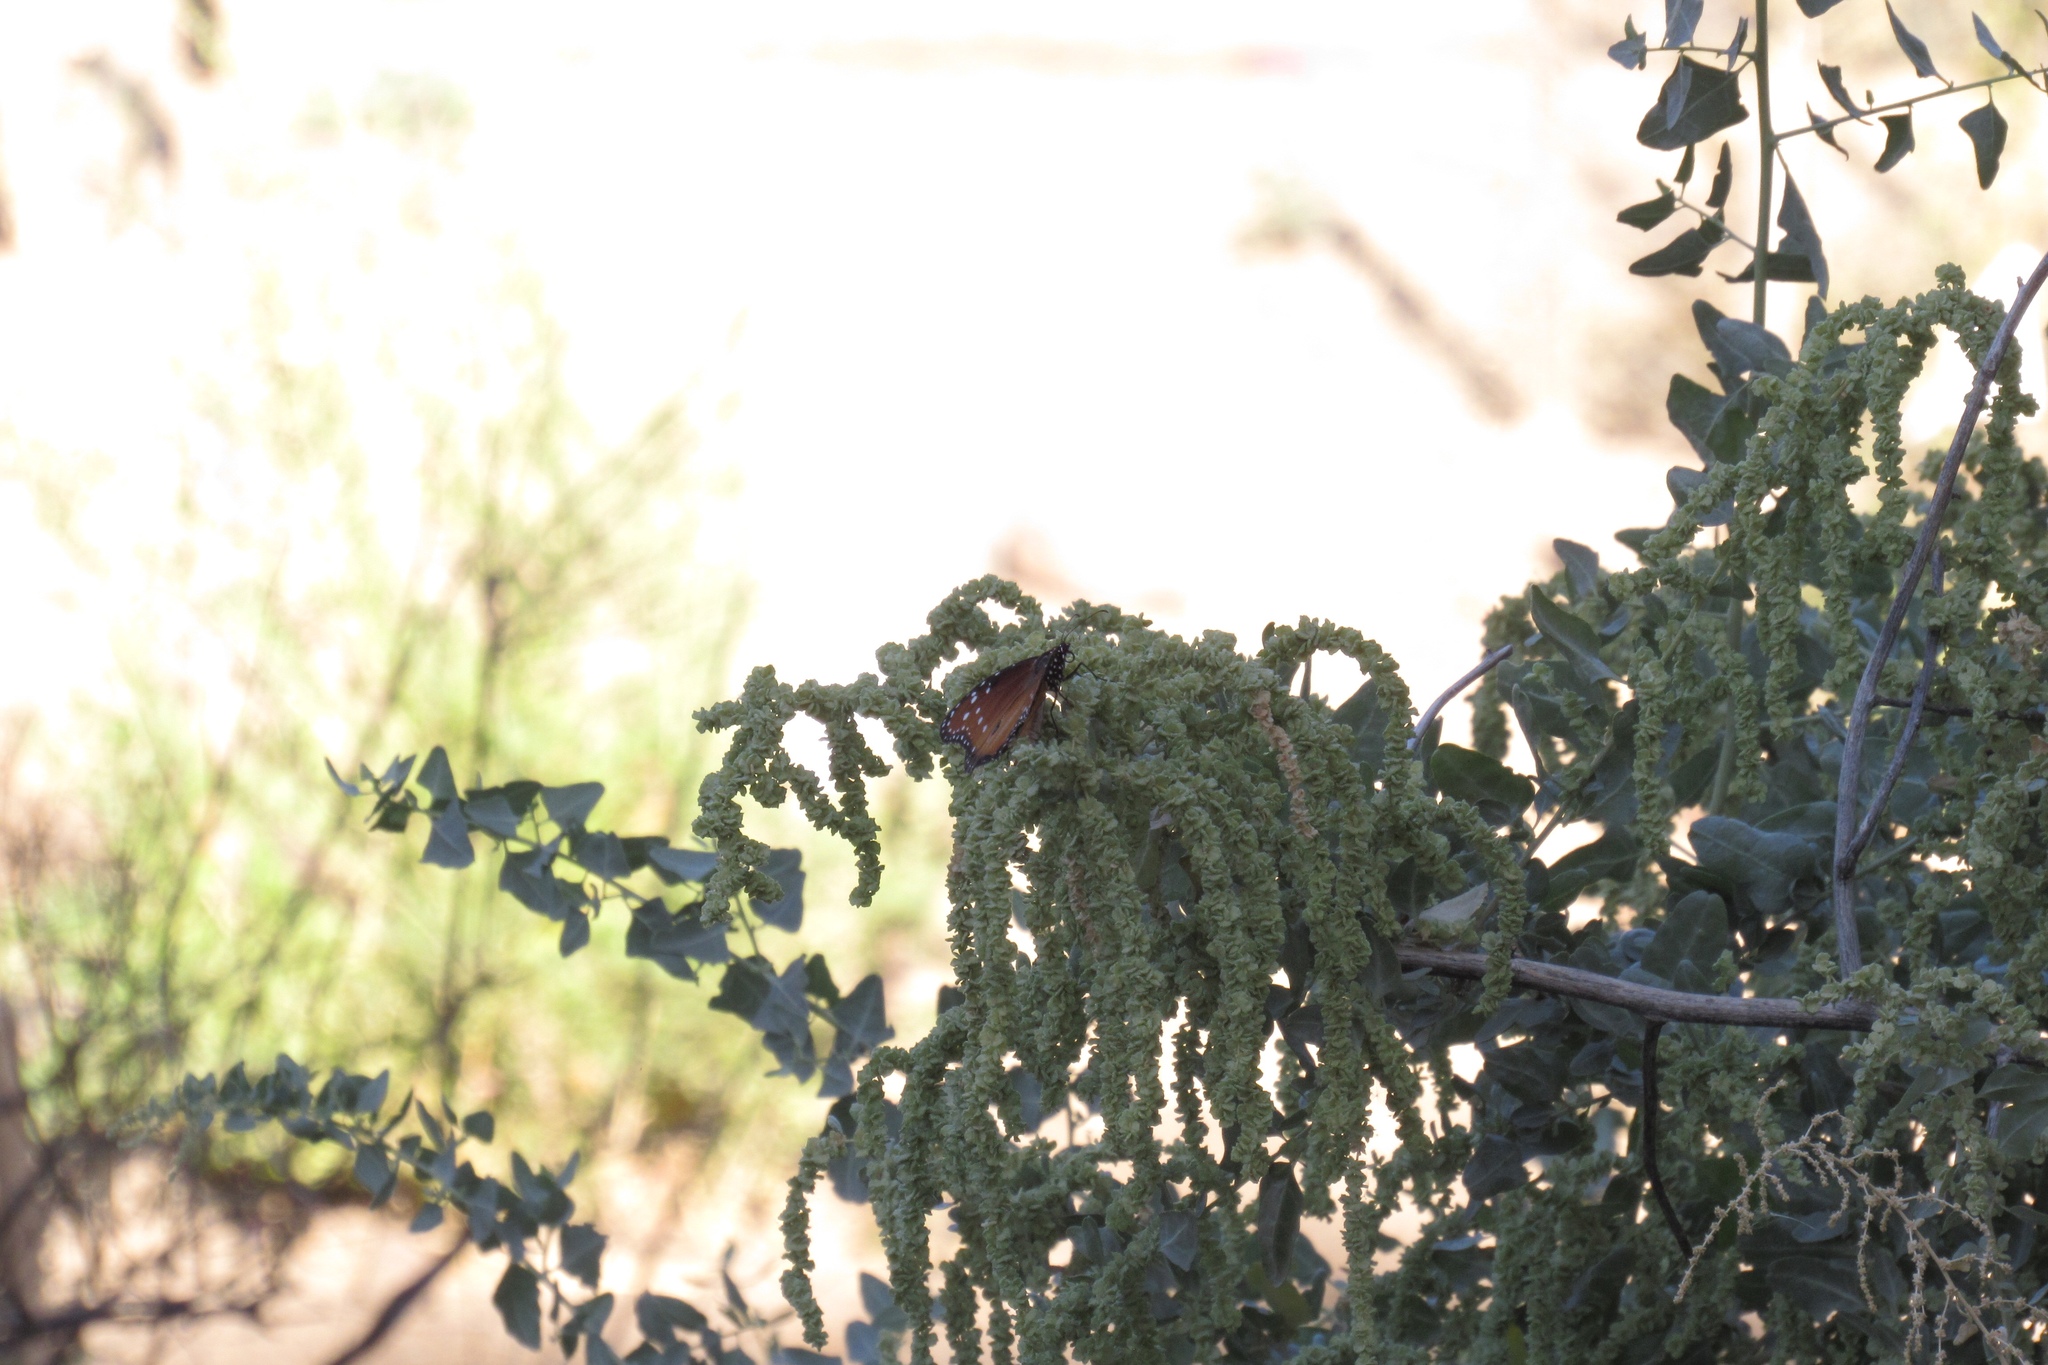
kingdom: Animalia
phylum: Arthropoda
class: Insecta
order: Lepidoptera
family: Nymphalidae
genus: Danaus
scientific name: Danaus gilippus
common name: Queen
